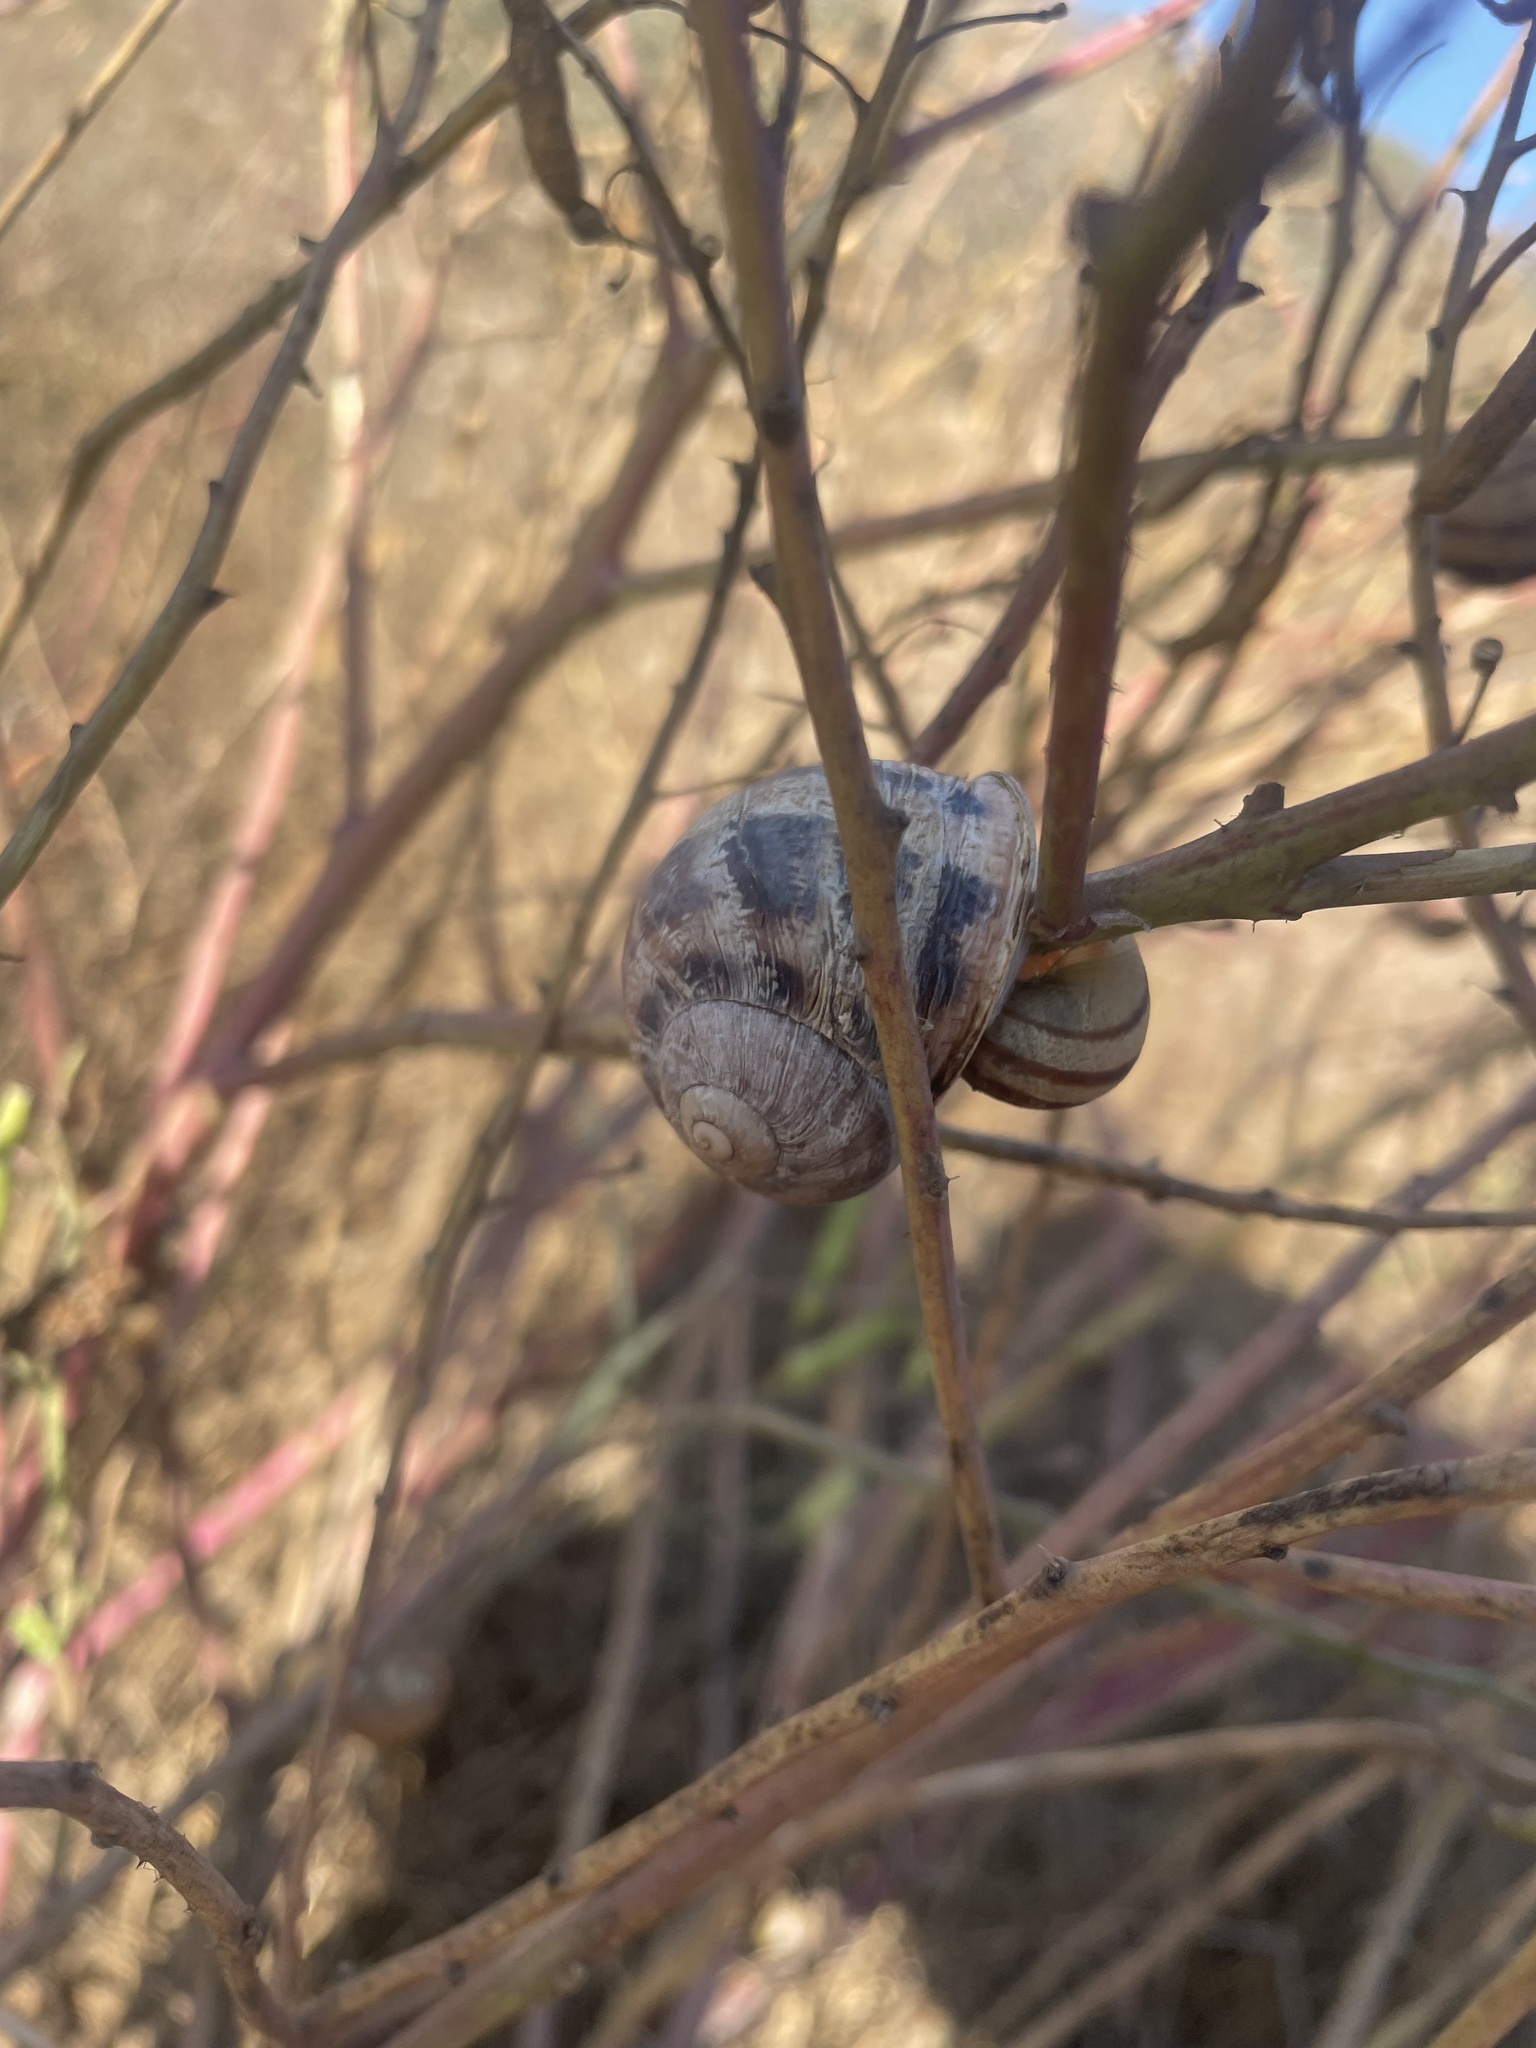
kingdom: Animalia
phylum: Mollusca
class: Gastropoda
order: Stylommatophora
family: Helicidae
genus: Cornu
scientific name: Cornu aspersum
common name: Brown garden snail
